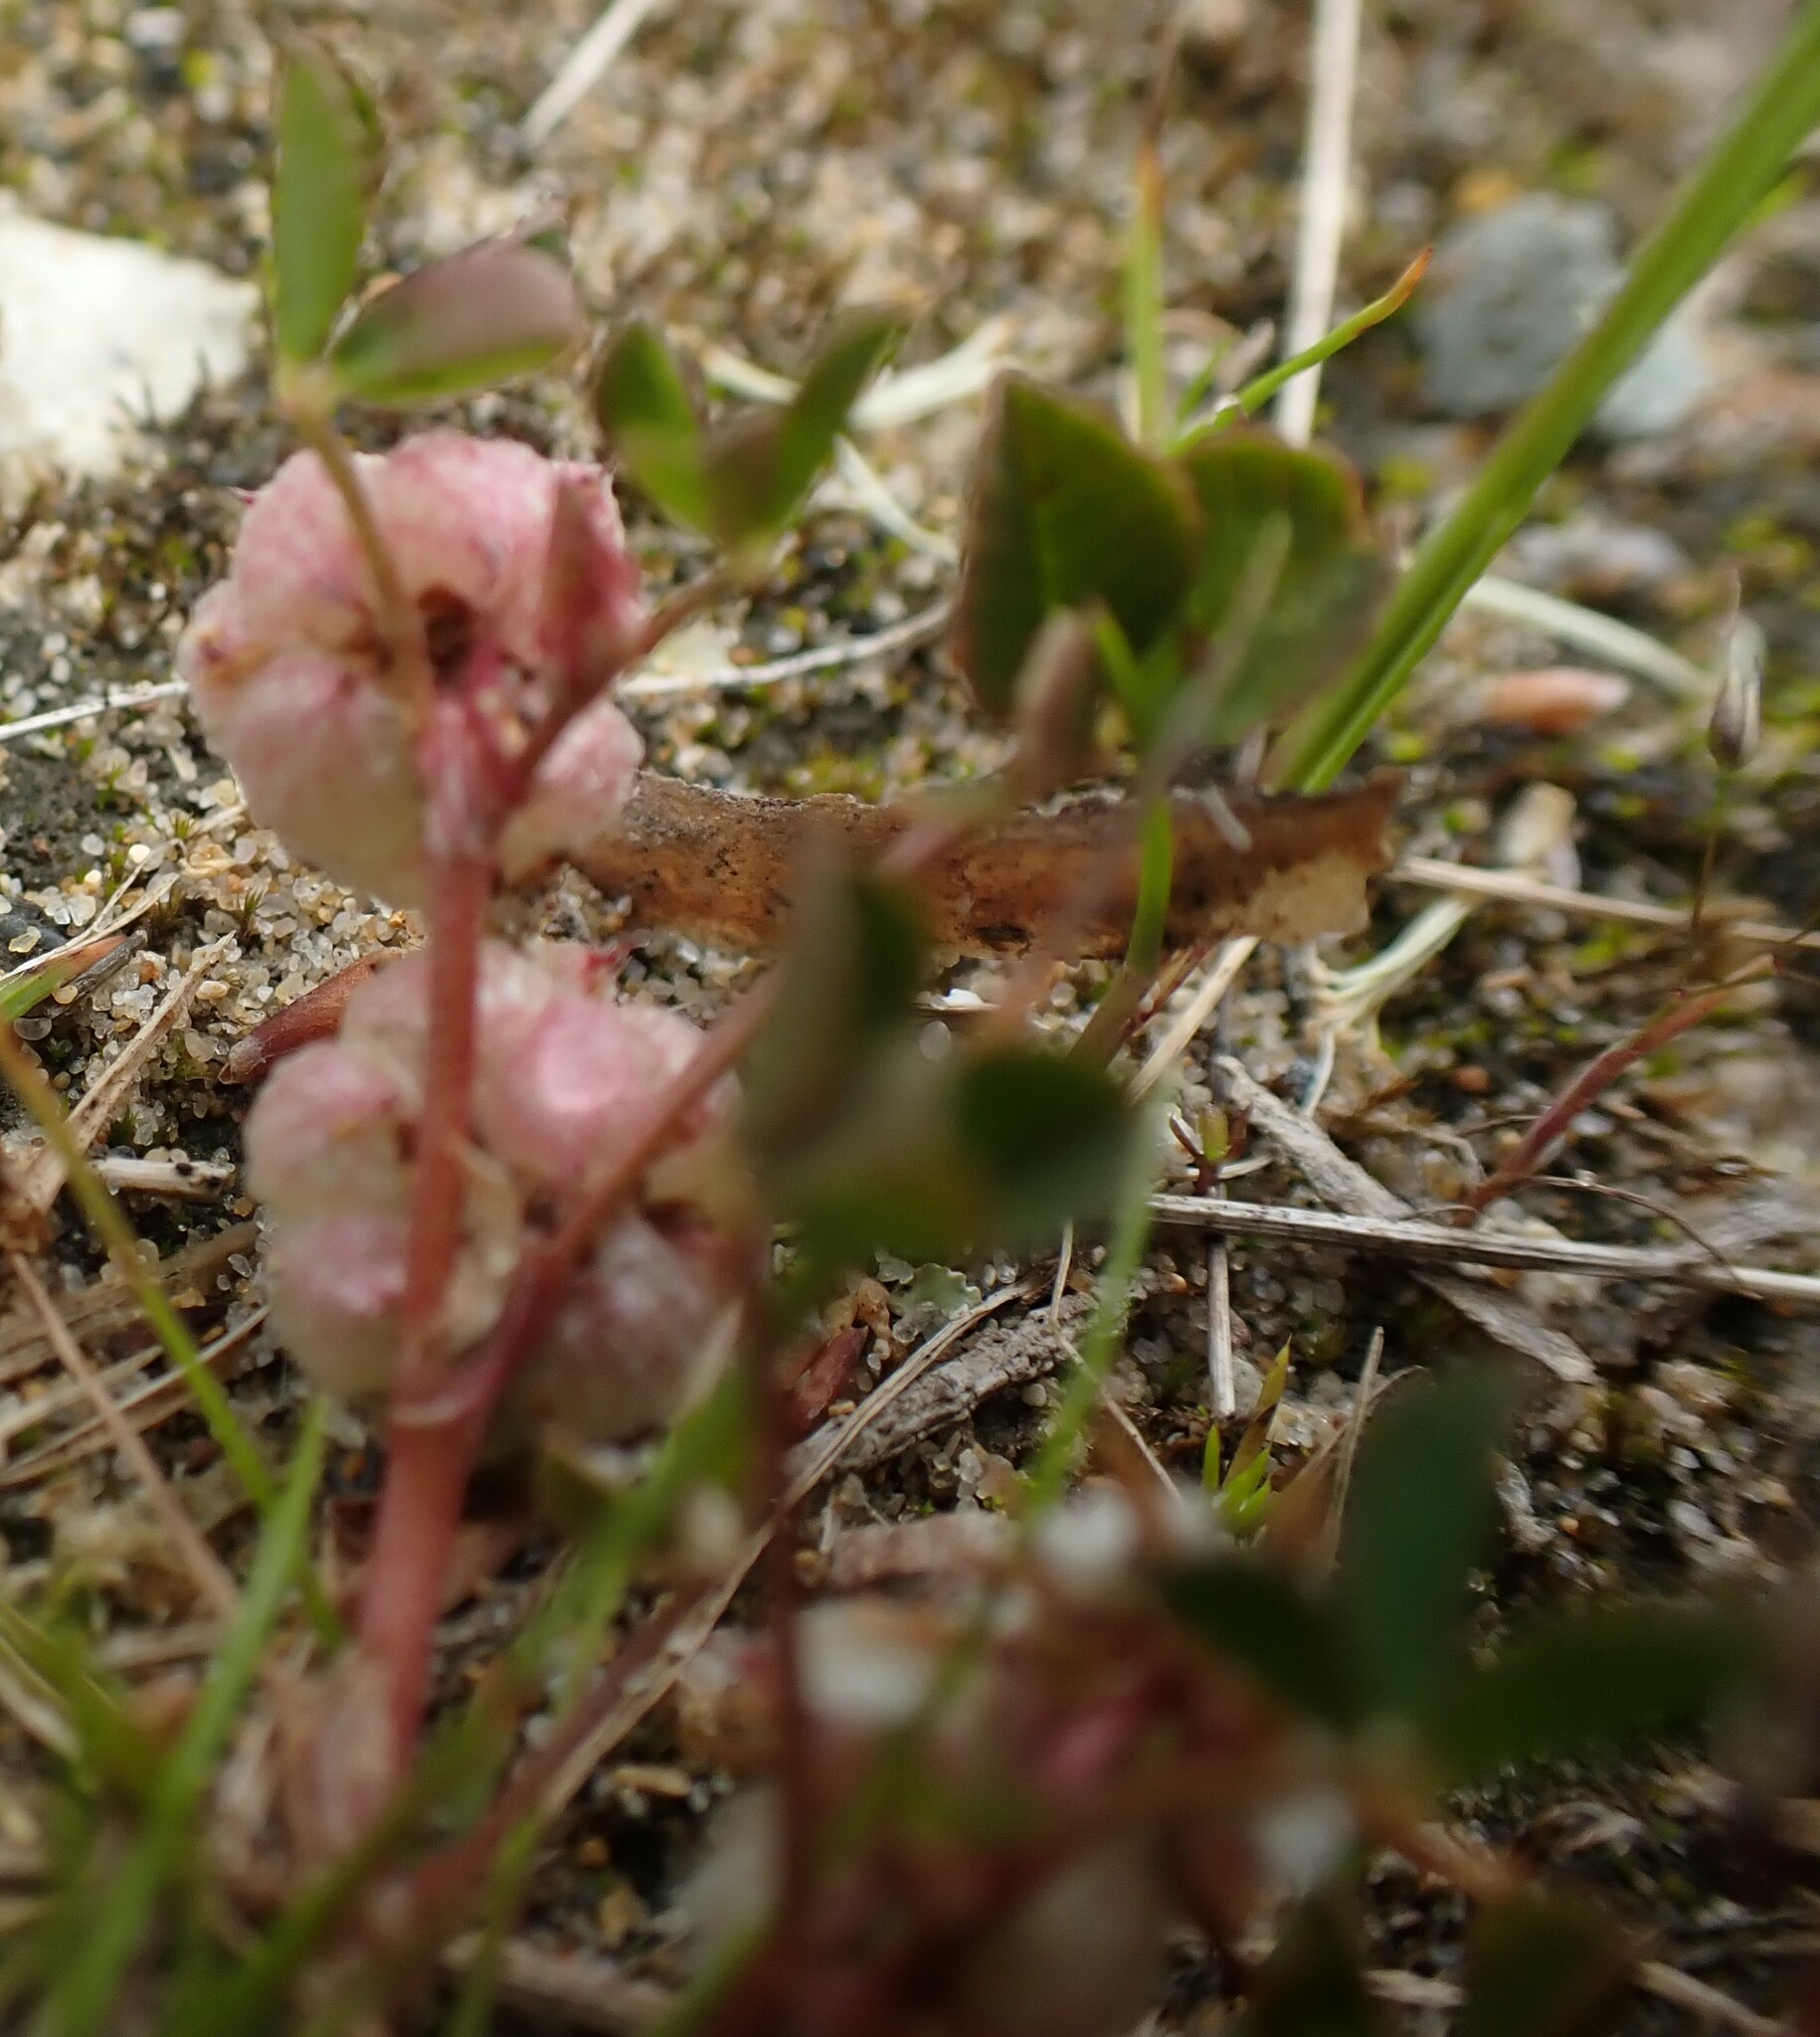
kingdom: Plantae
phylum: Tracheophyta
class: Magnoliopsida
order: Fabales
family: Fabaceae
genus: Trifolium
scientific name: Trifolium tomentosum
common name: Woolly clover
